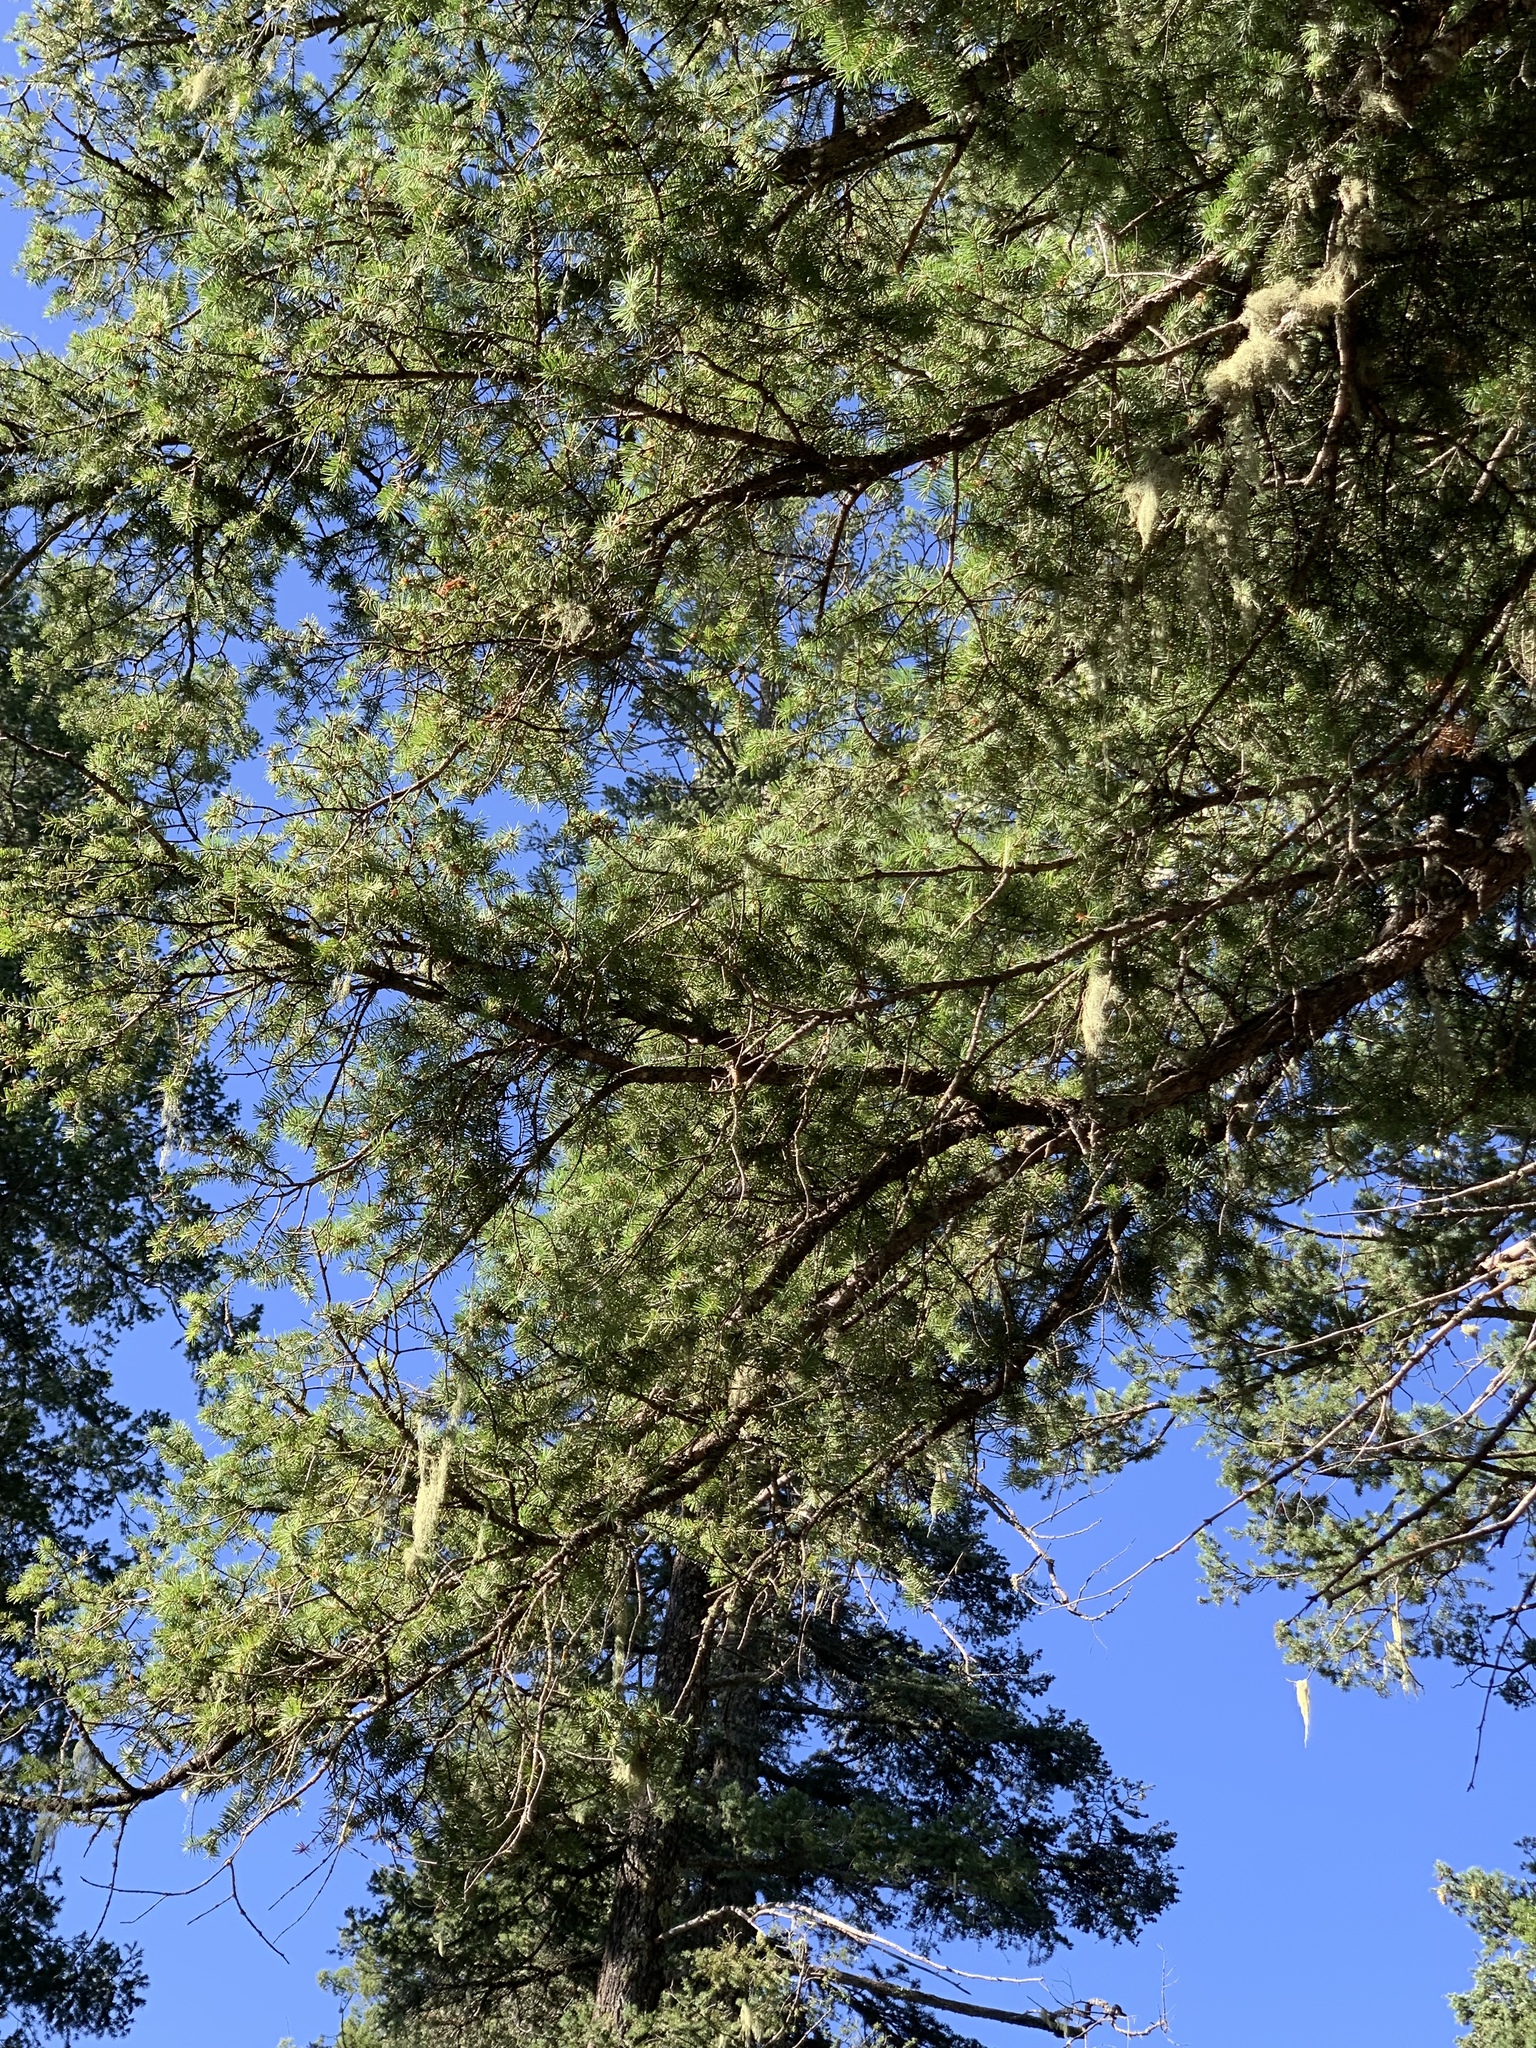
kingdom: Plantae
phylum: Tracheophyta
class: Pinopsida
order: Pinales
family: Pinaceae
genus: Pseudotsuga
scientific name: Pseudotsuga menziesii
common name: Douglas fir
